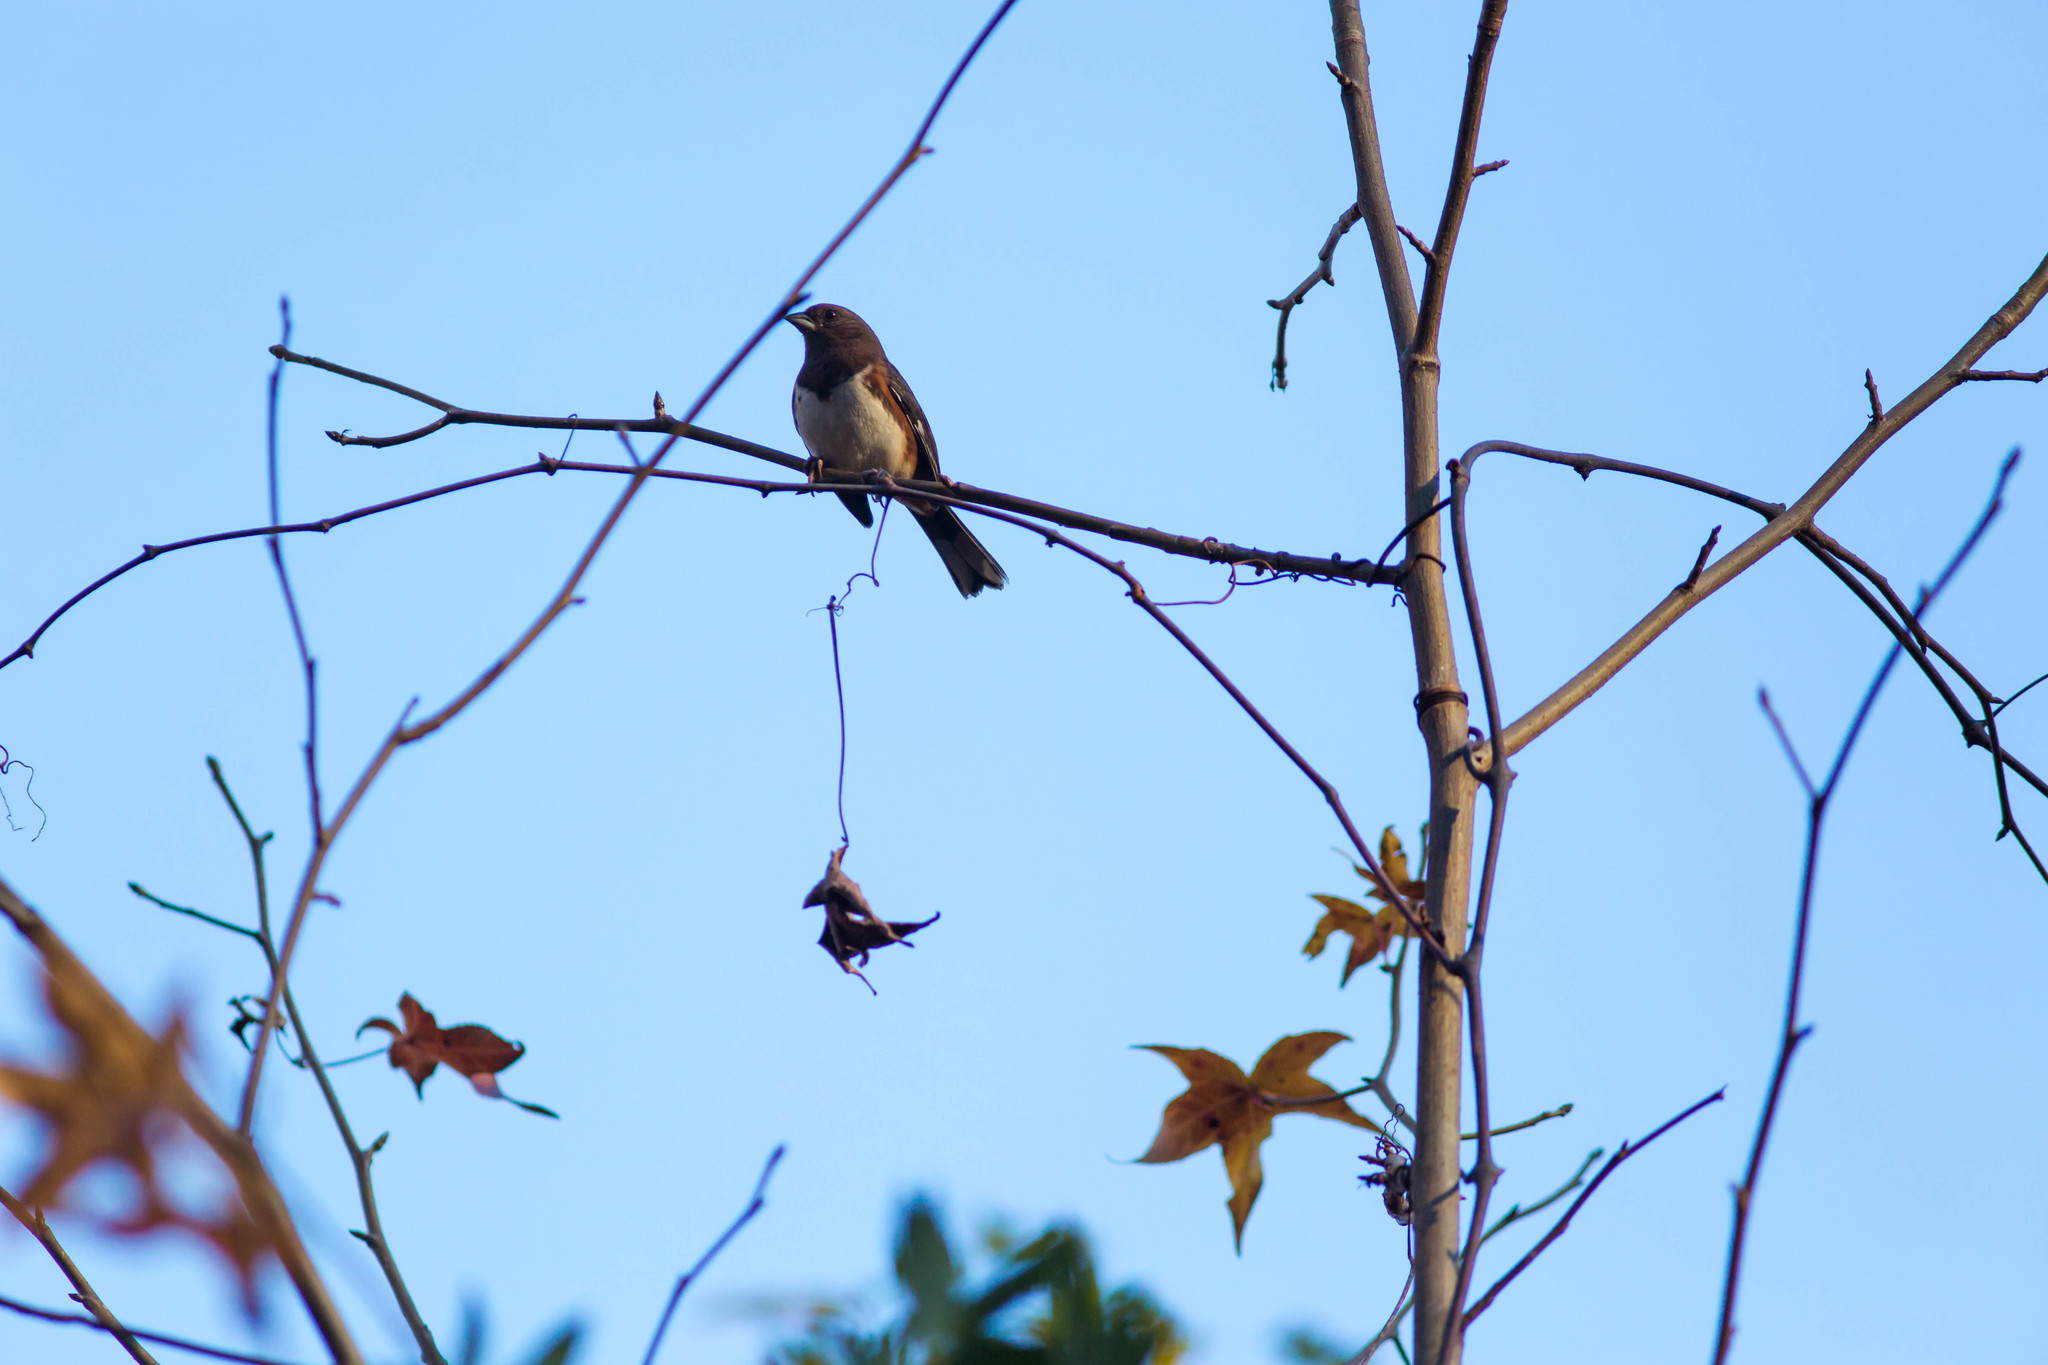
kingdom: Animalia
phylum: Chordata
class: Aves
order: Passeriformes
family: Passerellidae
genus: Pipilo
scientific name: Pipilo erythrophthalmus
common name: Eastern towhee
